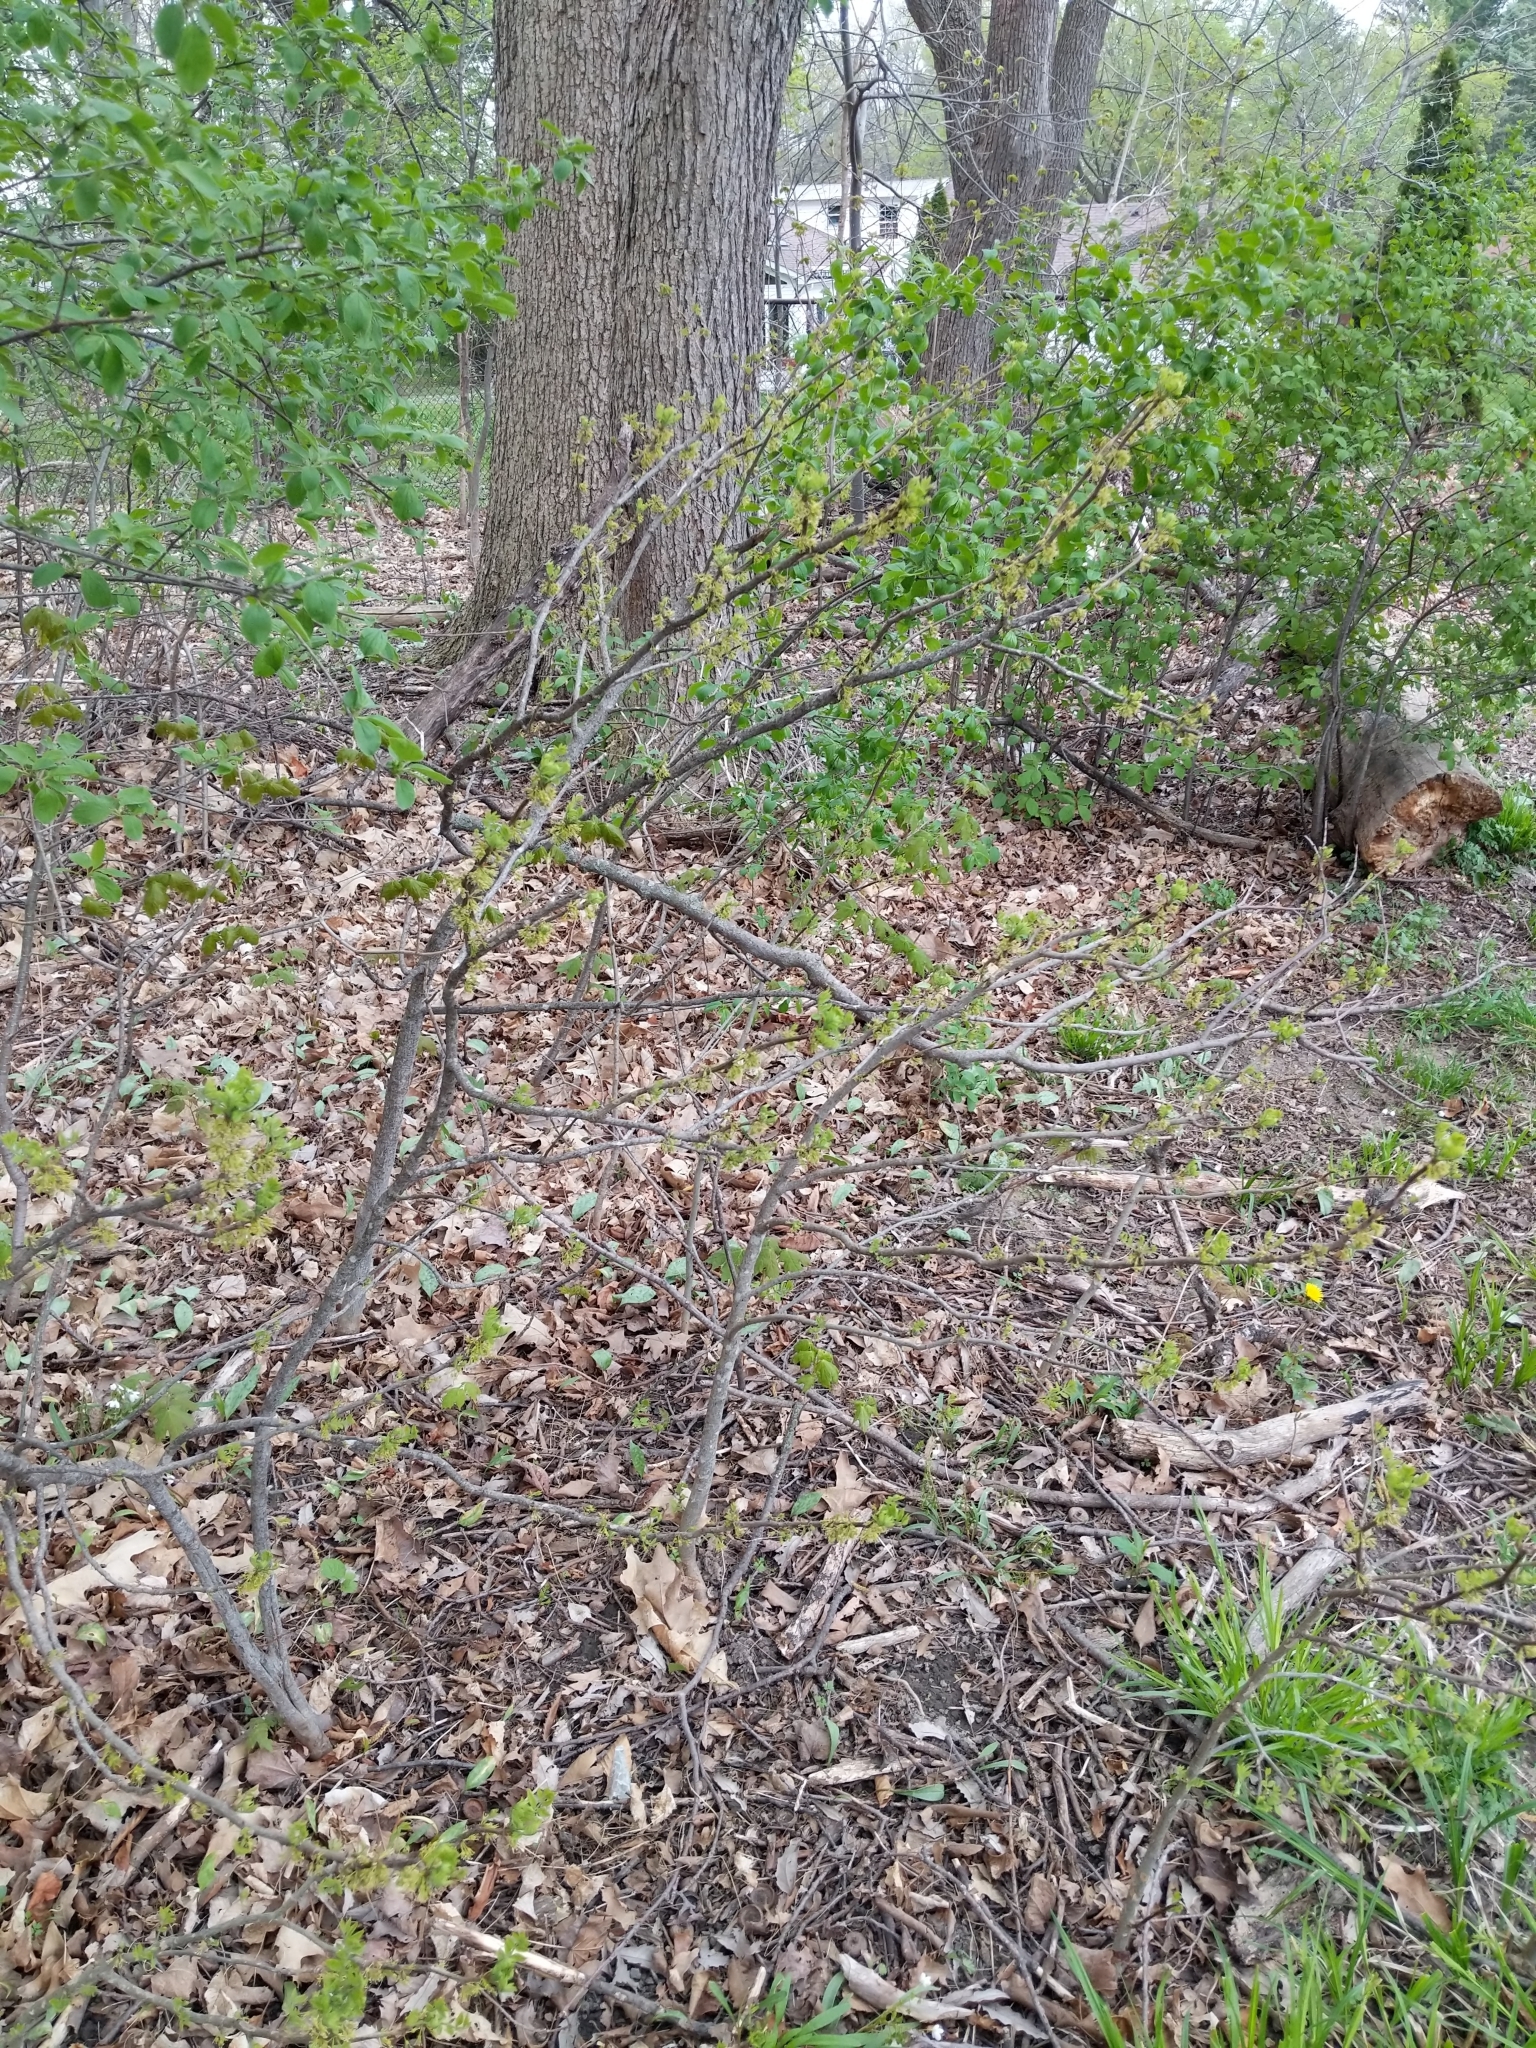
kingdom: Plantae
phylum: Tracheophyta
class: Magnoliopsida
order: Sapindales
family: Rutaceae
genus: Zanthoxylum
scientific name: Zanthoxylum americanum
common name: Northern prickly-ash
